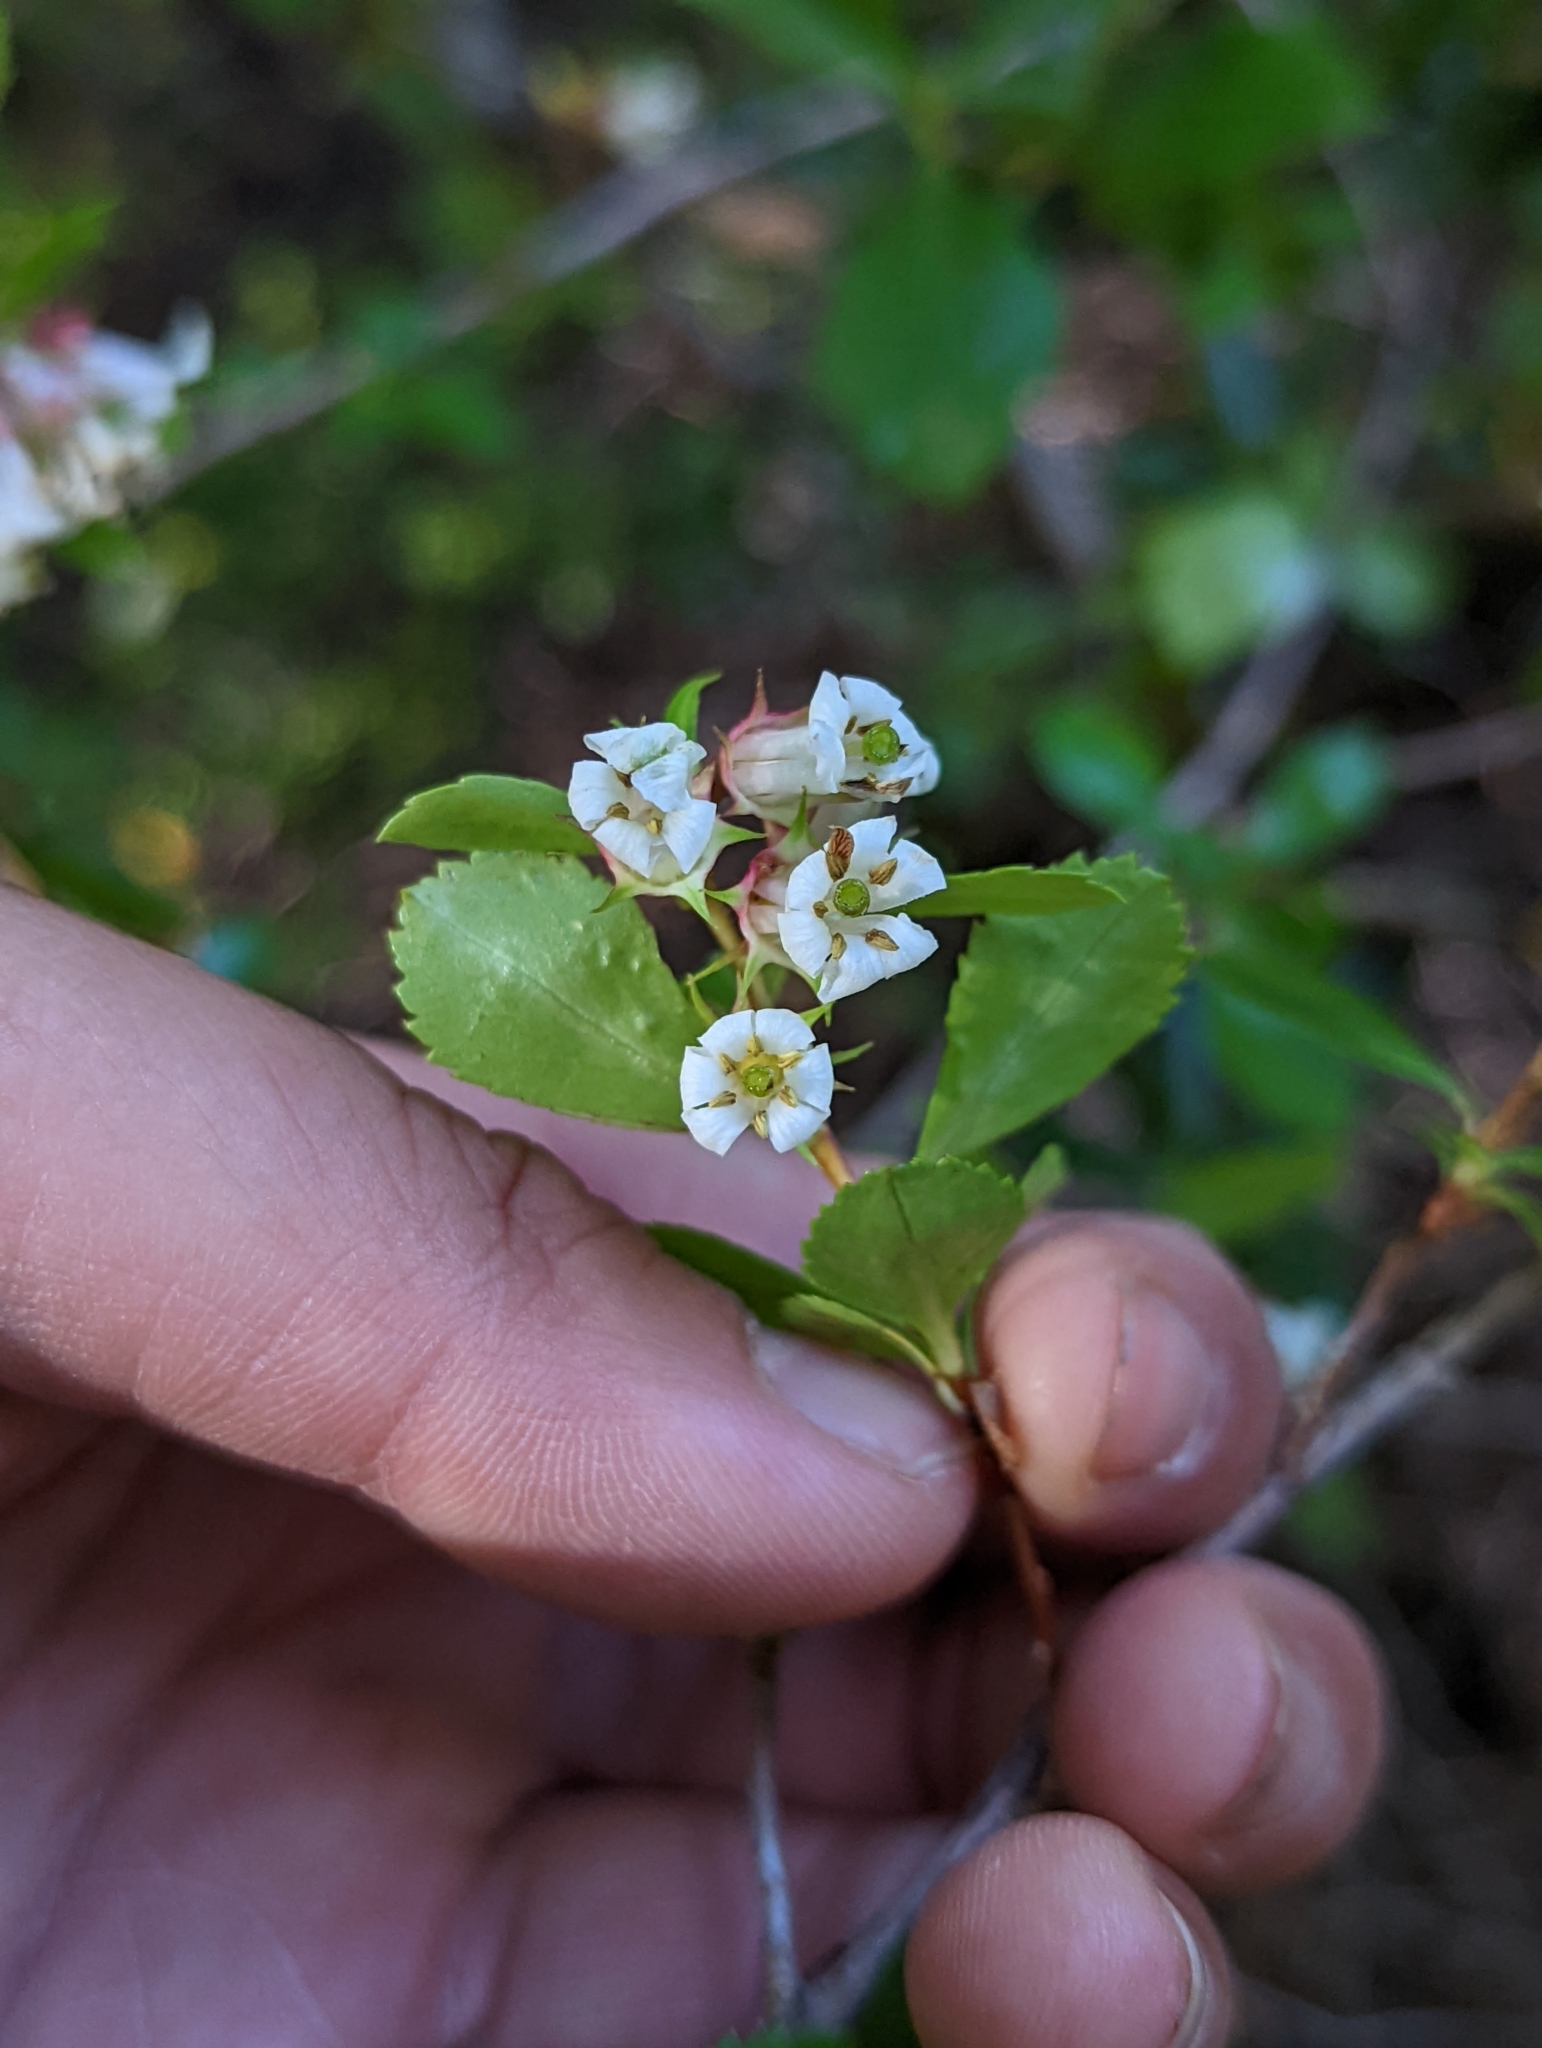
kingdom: Plantae
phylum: Tracheophyta
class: Magnoliopsida
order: Escalloniales
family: Escalloniaceae
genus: Escallonia
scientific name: Escallonia alpina
